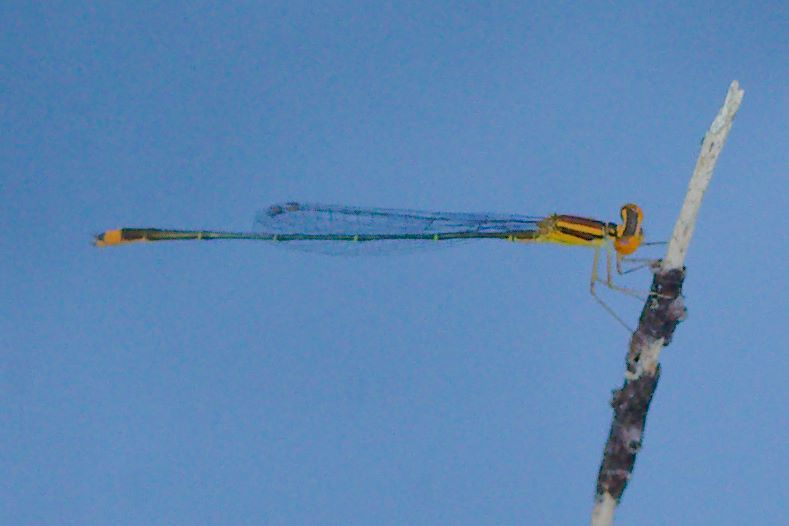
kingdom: Animalia
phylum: Arthropoda
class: Insecta
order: Odonata
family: Coenagrionidae
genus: Enallagma
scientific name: Enallagma pollutum
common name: Florida bluet
